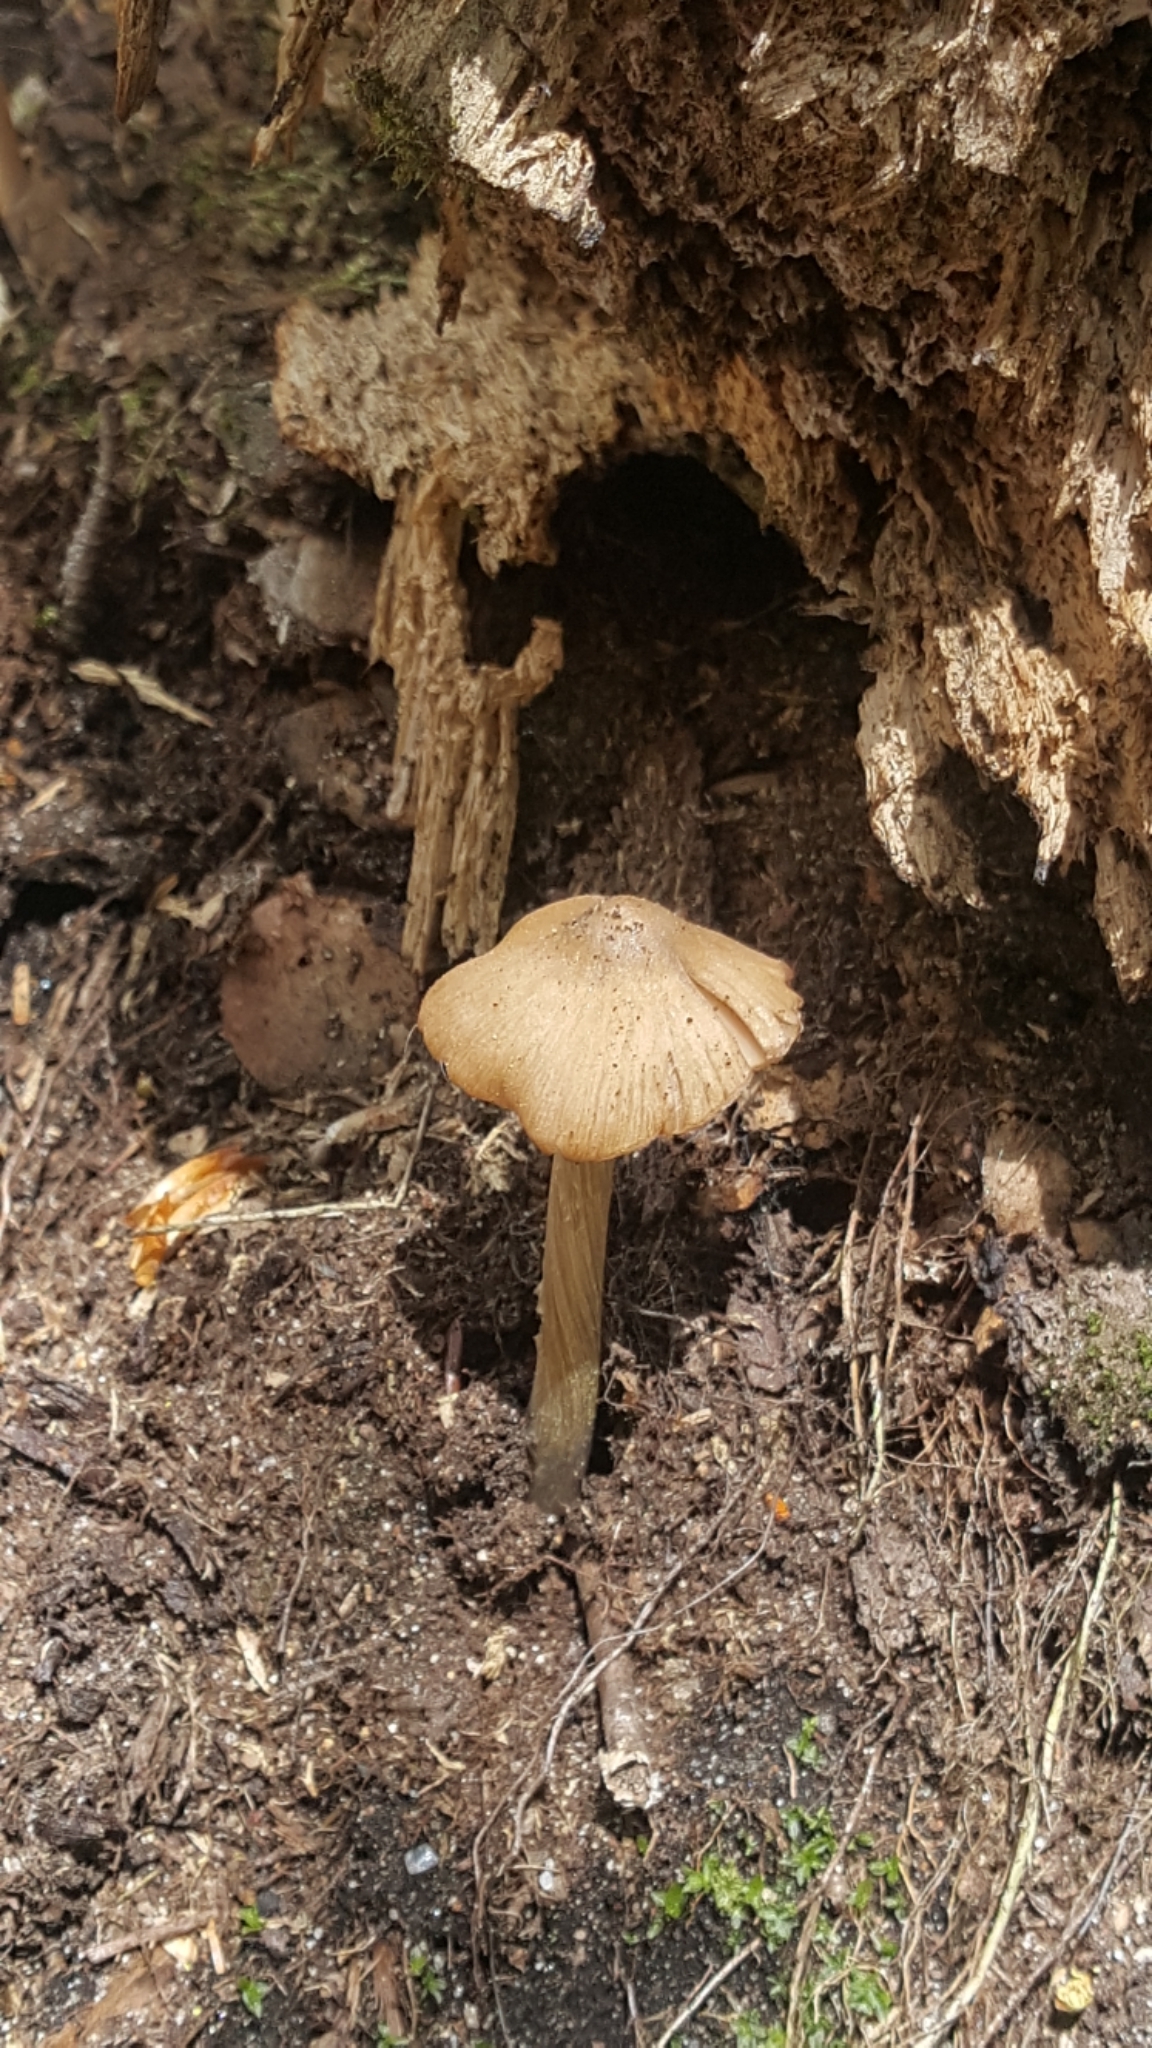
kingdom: Fungi
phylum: Basidiomycota
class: Agaricomycetes
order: Agaricales
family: Entolomataceae
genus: Entoloma
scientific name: Entoloma strictius
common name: Straight-stalked entoloma
